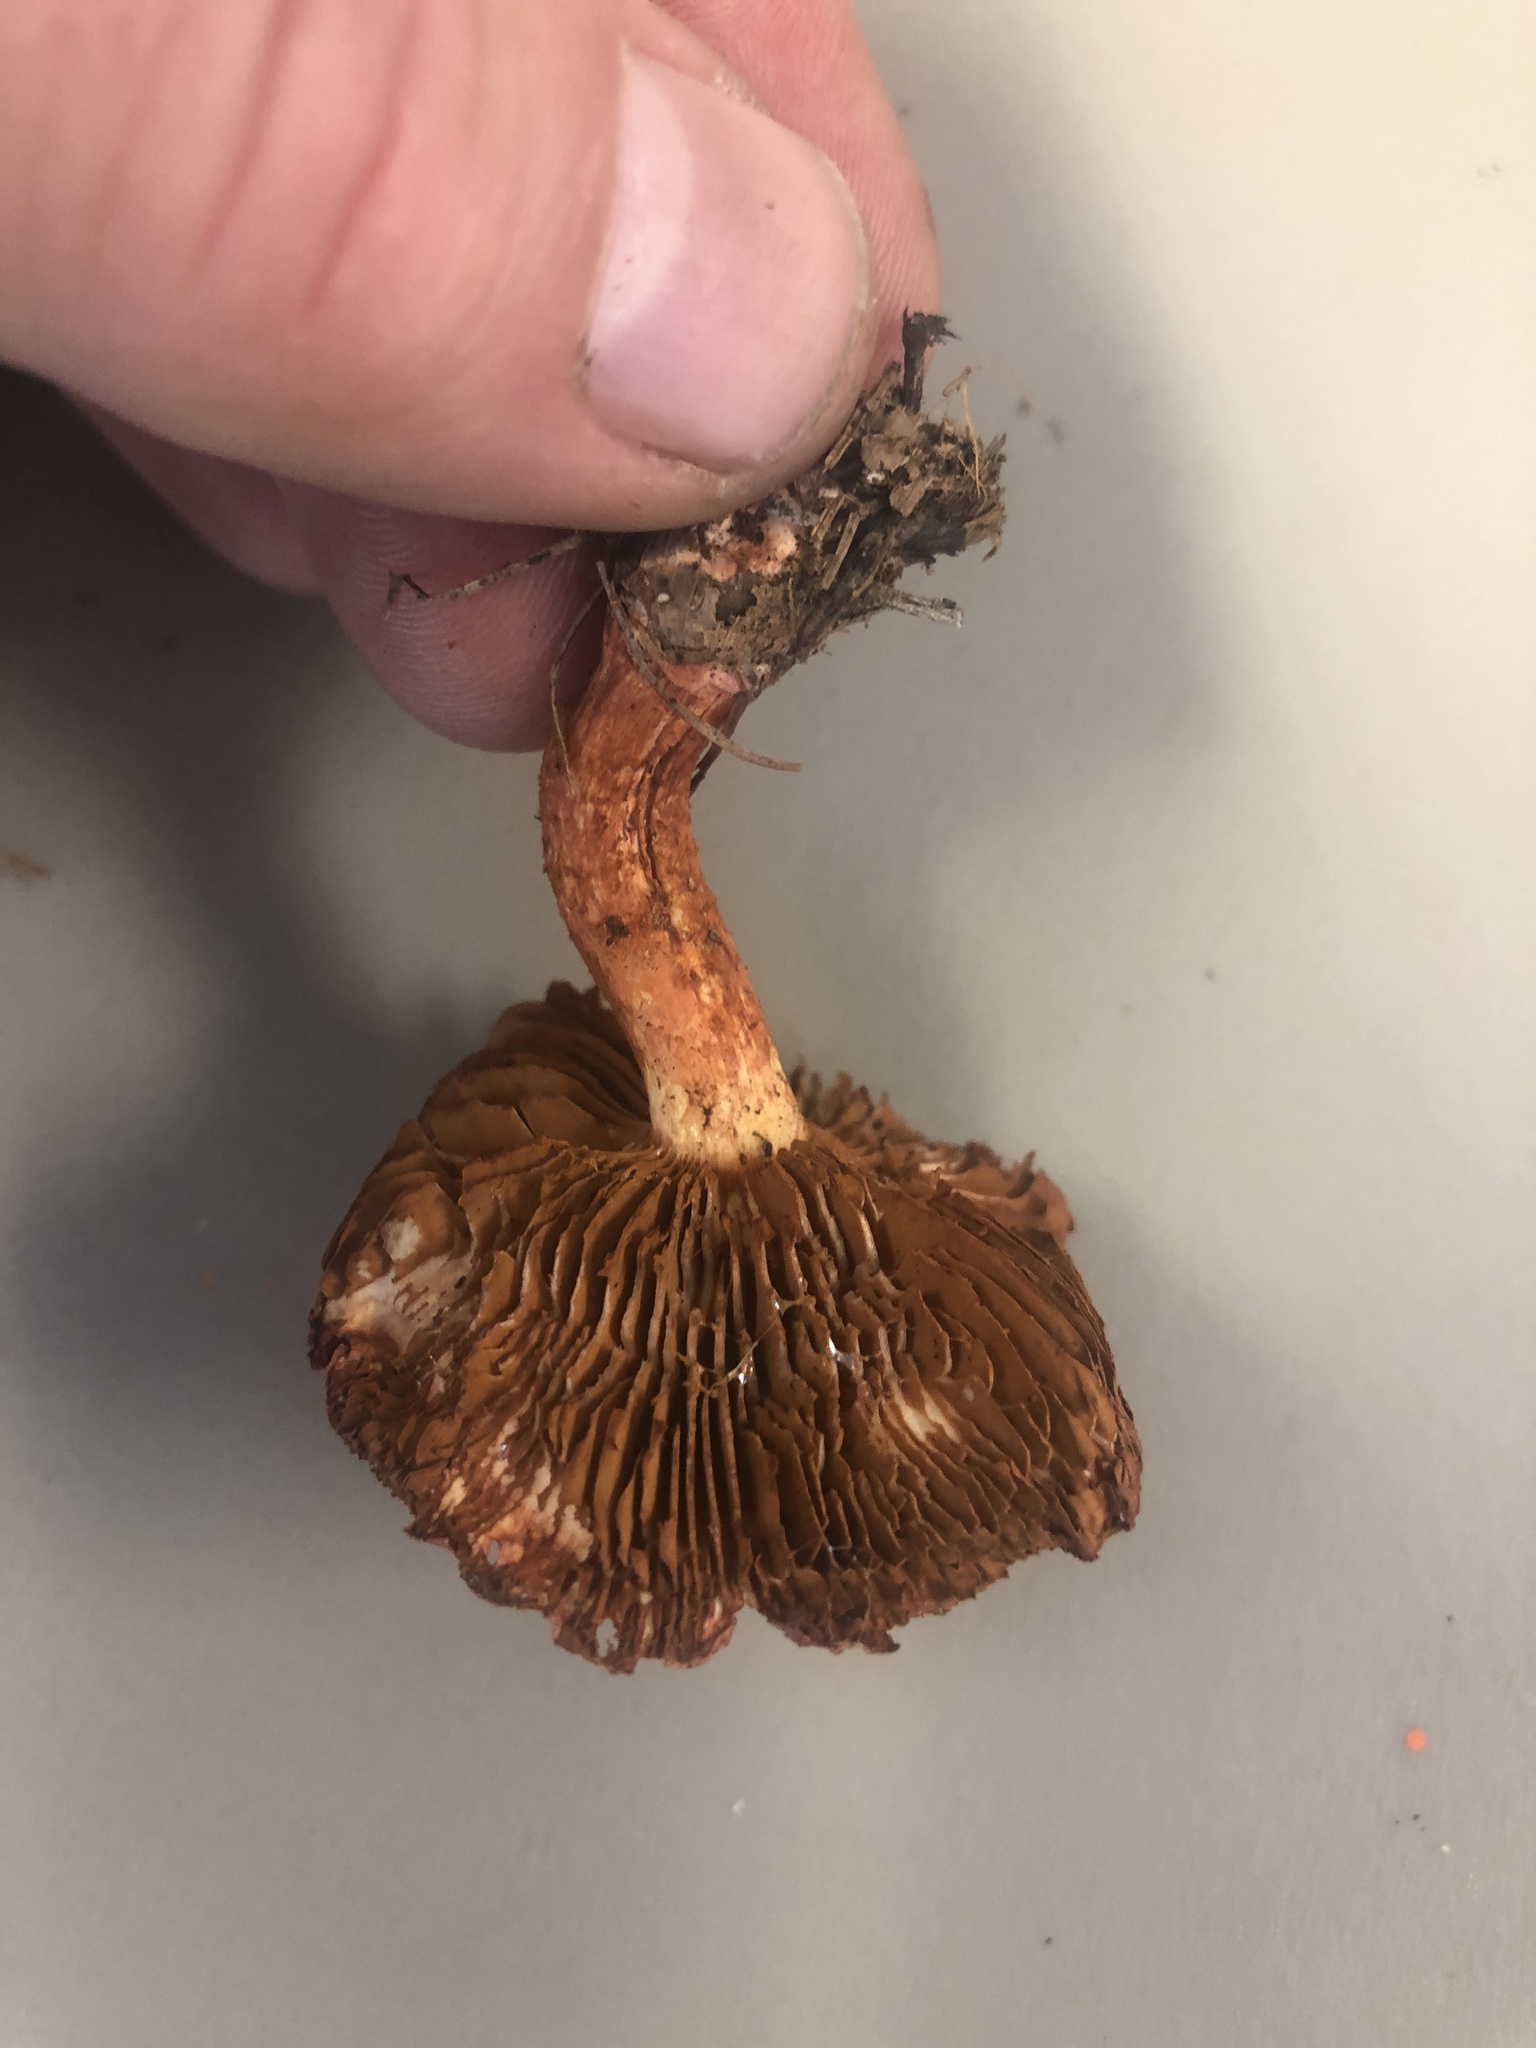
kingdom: Fungi
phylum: Basidiomycota
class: Agaricomycetes
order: Agaricales
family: Cortinariaceae
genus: Cortinarius
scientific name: Cortinarius bolaris
